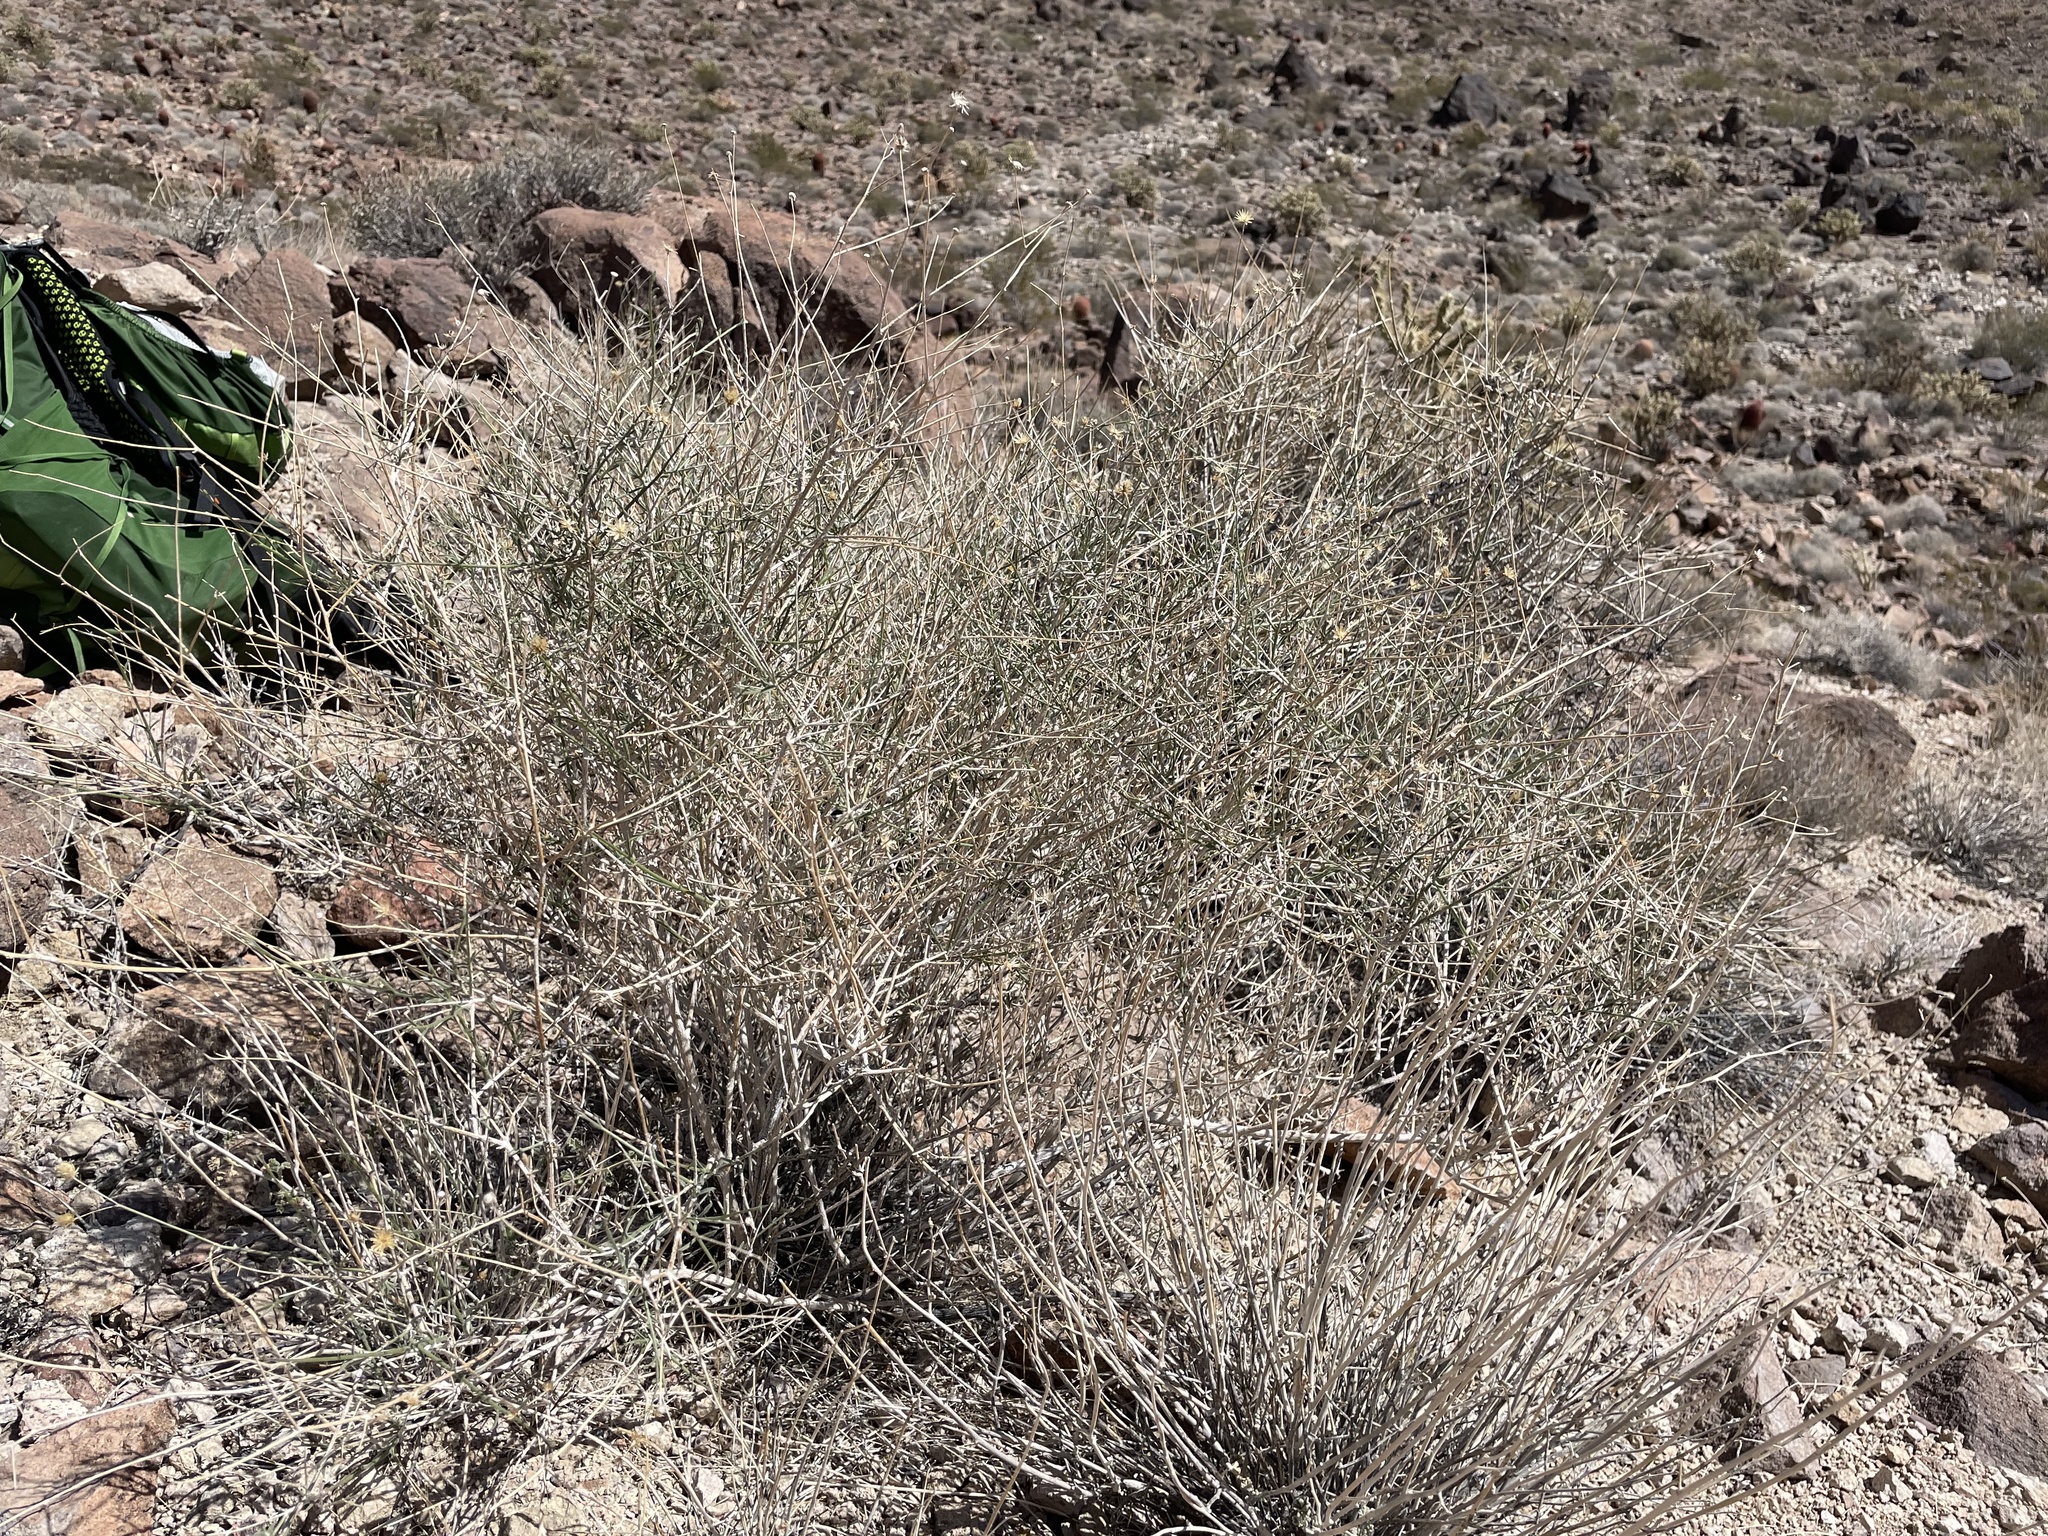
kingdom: Plantae
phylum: Tracheophyta
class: Magnoliopsida
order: Asterales
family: Asteraceae
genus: Bebbia
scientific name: Bebbia juncea
